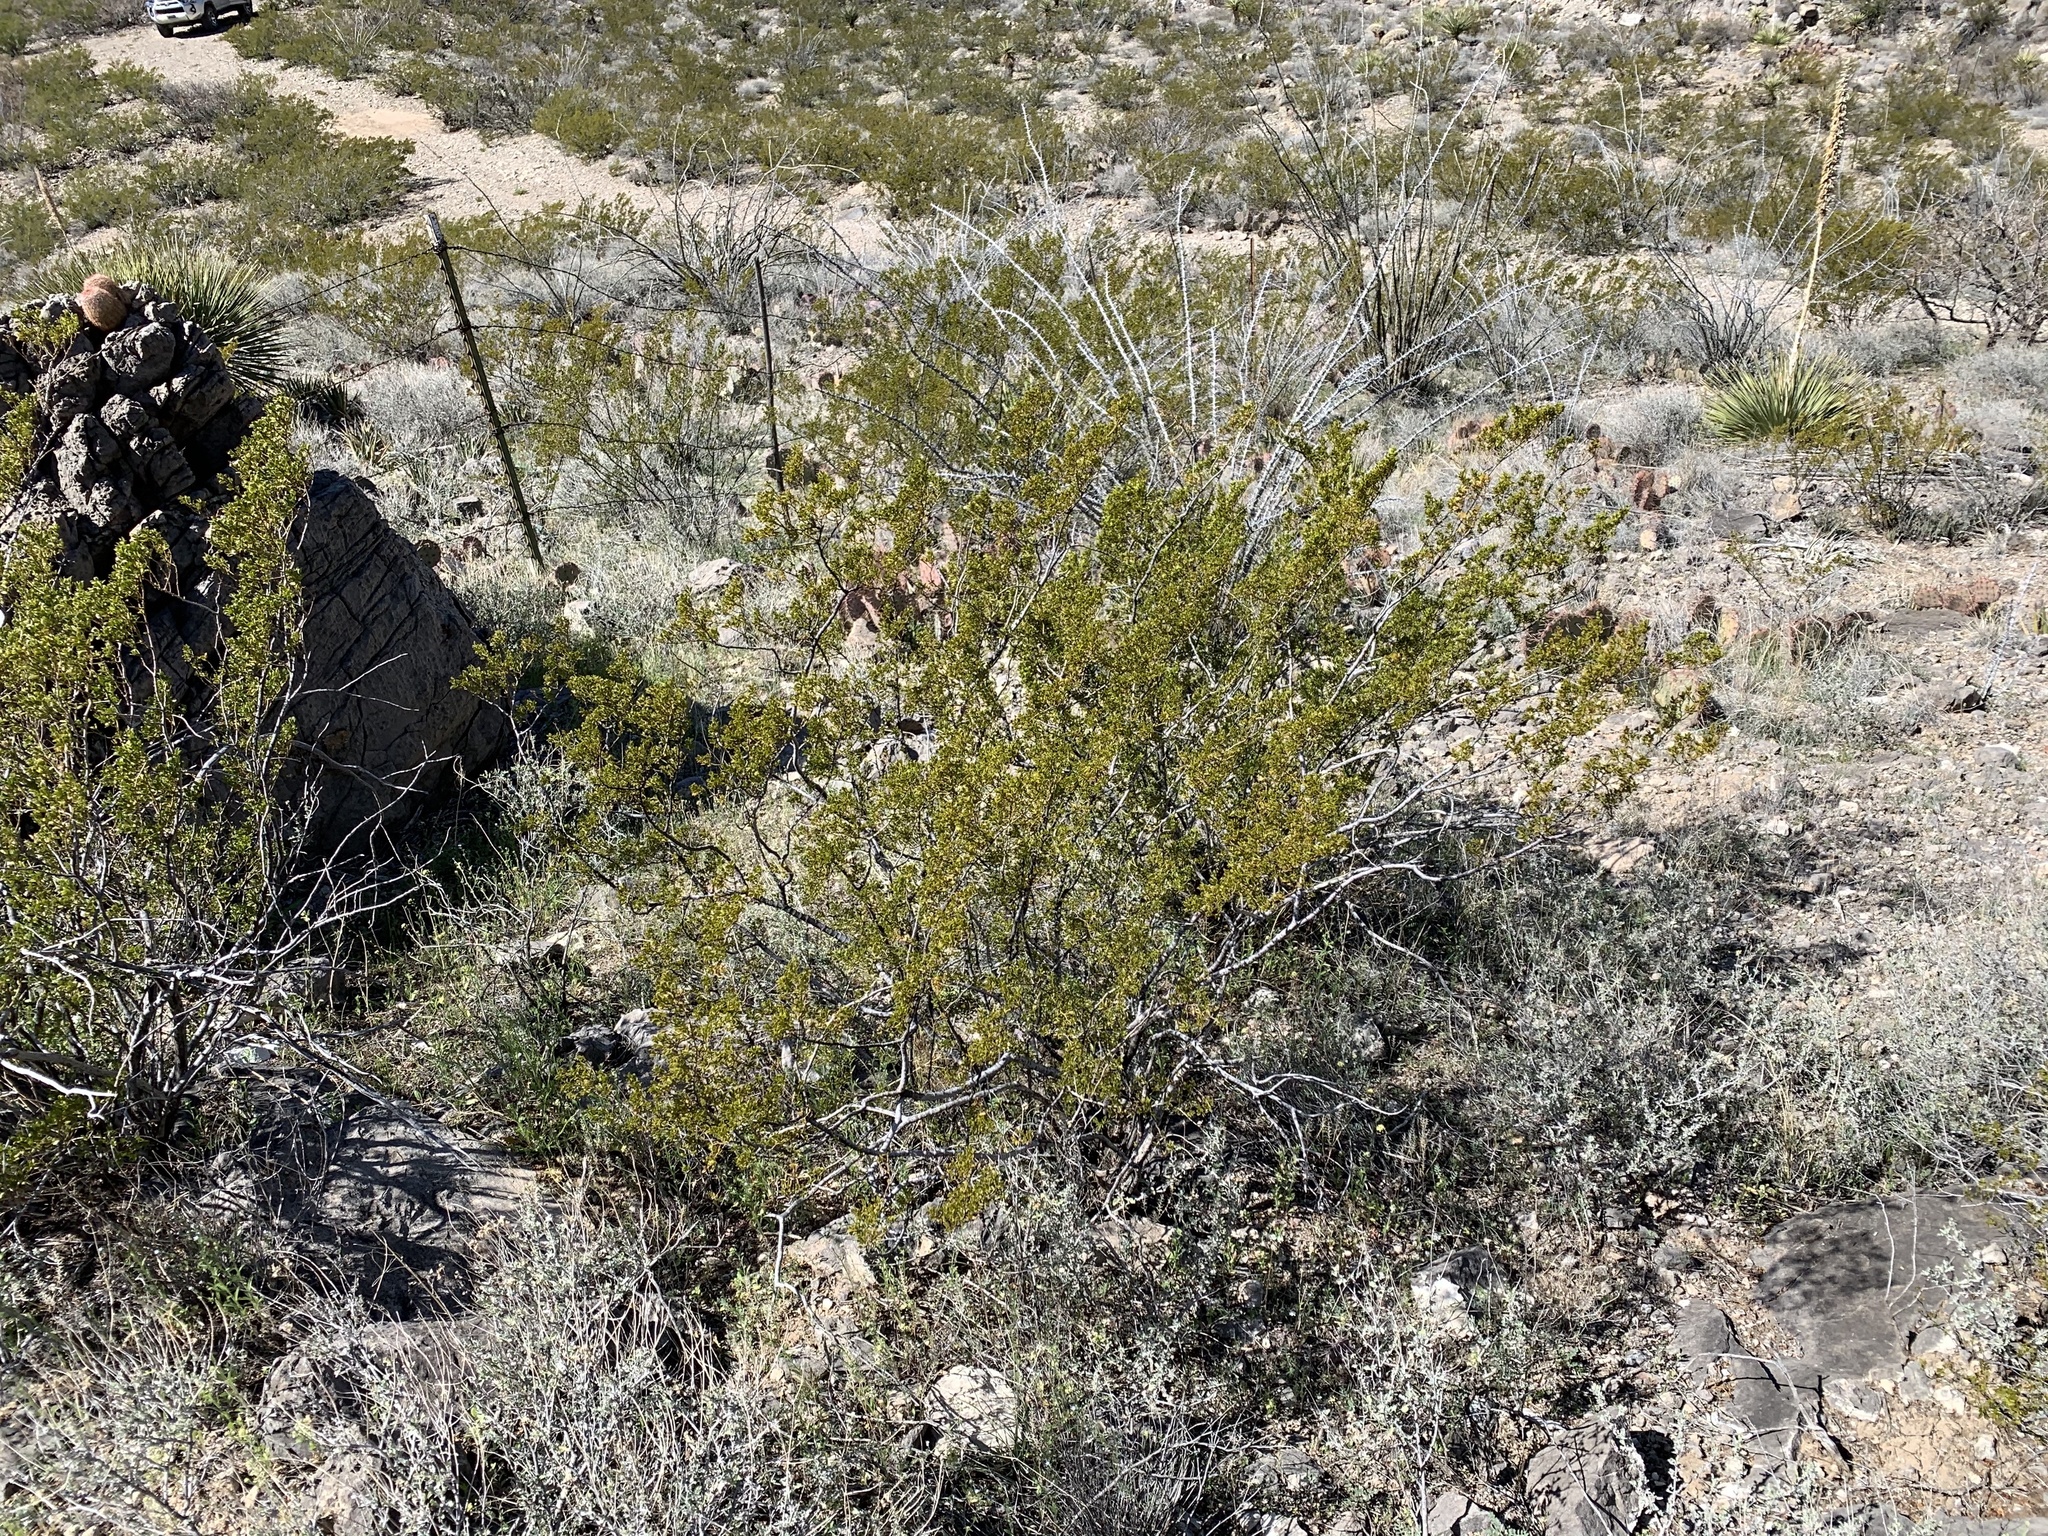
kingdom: Plantae
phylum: Tracheophyta
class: Magnoliopsida
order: Zygophyllales
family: Zygophyllaceae
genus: Larrea
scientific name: Larrea tridentata
